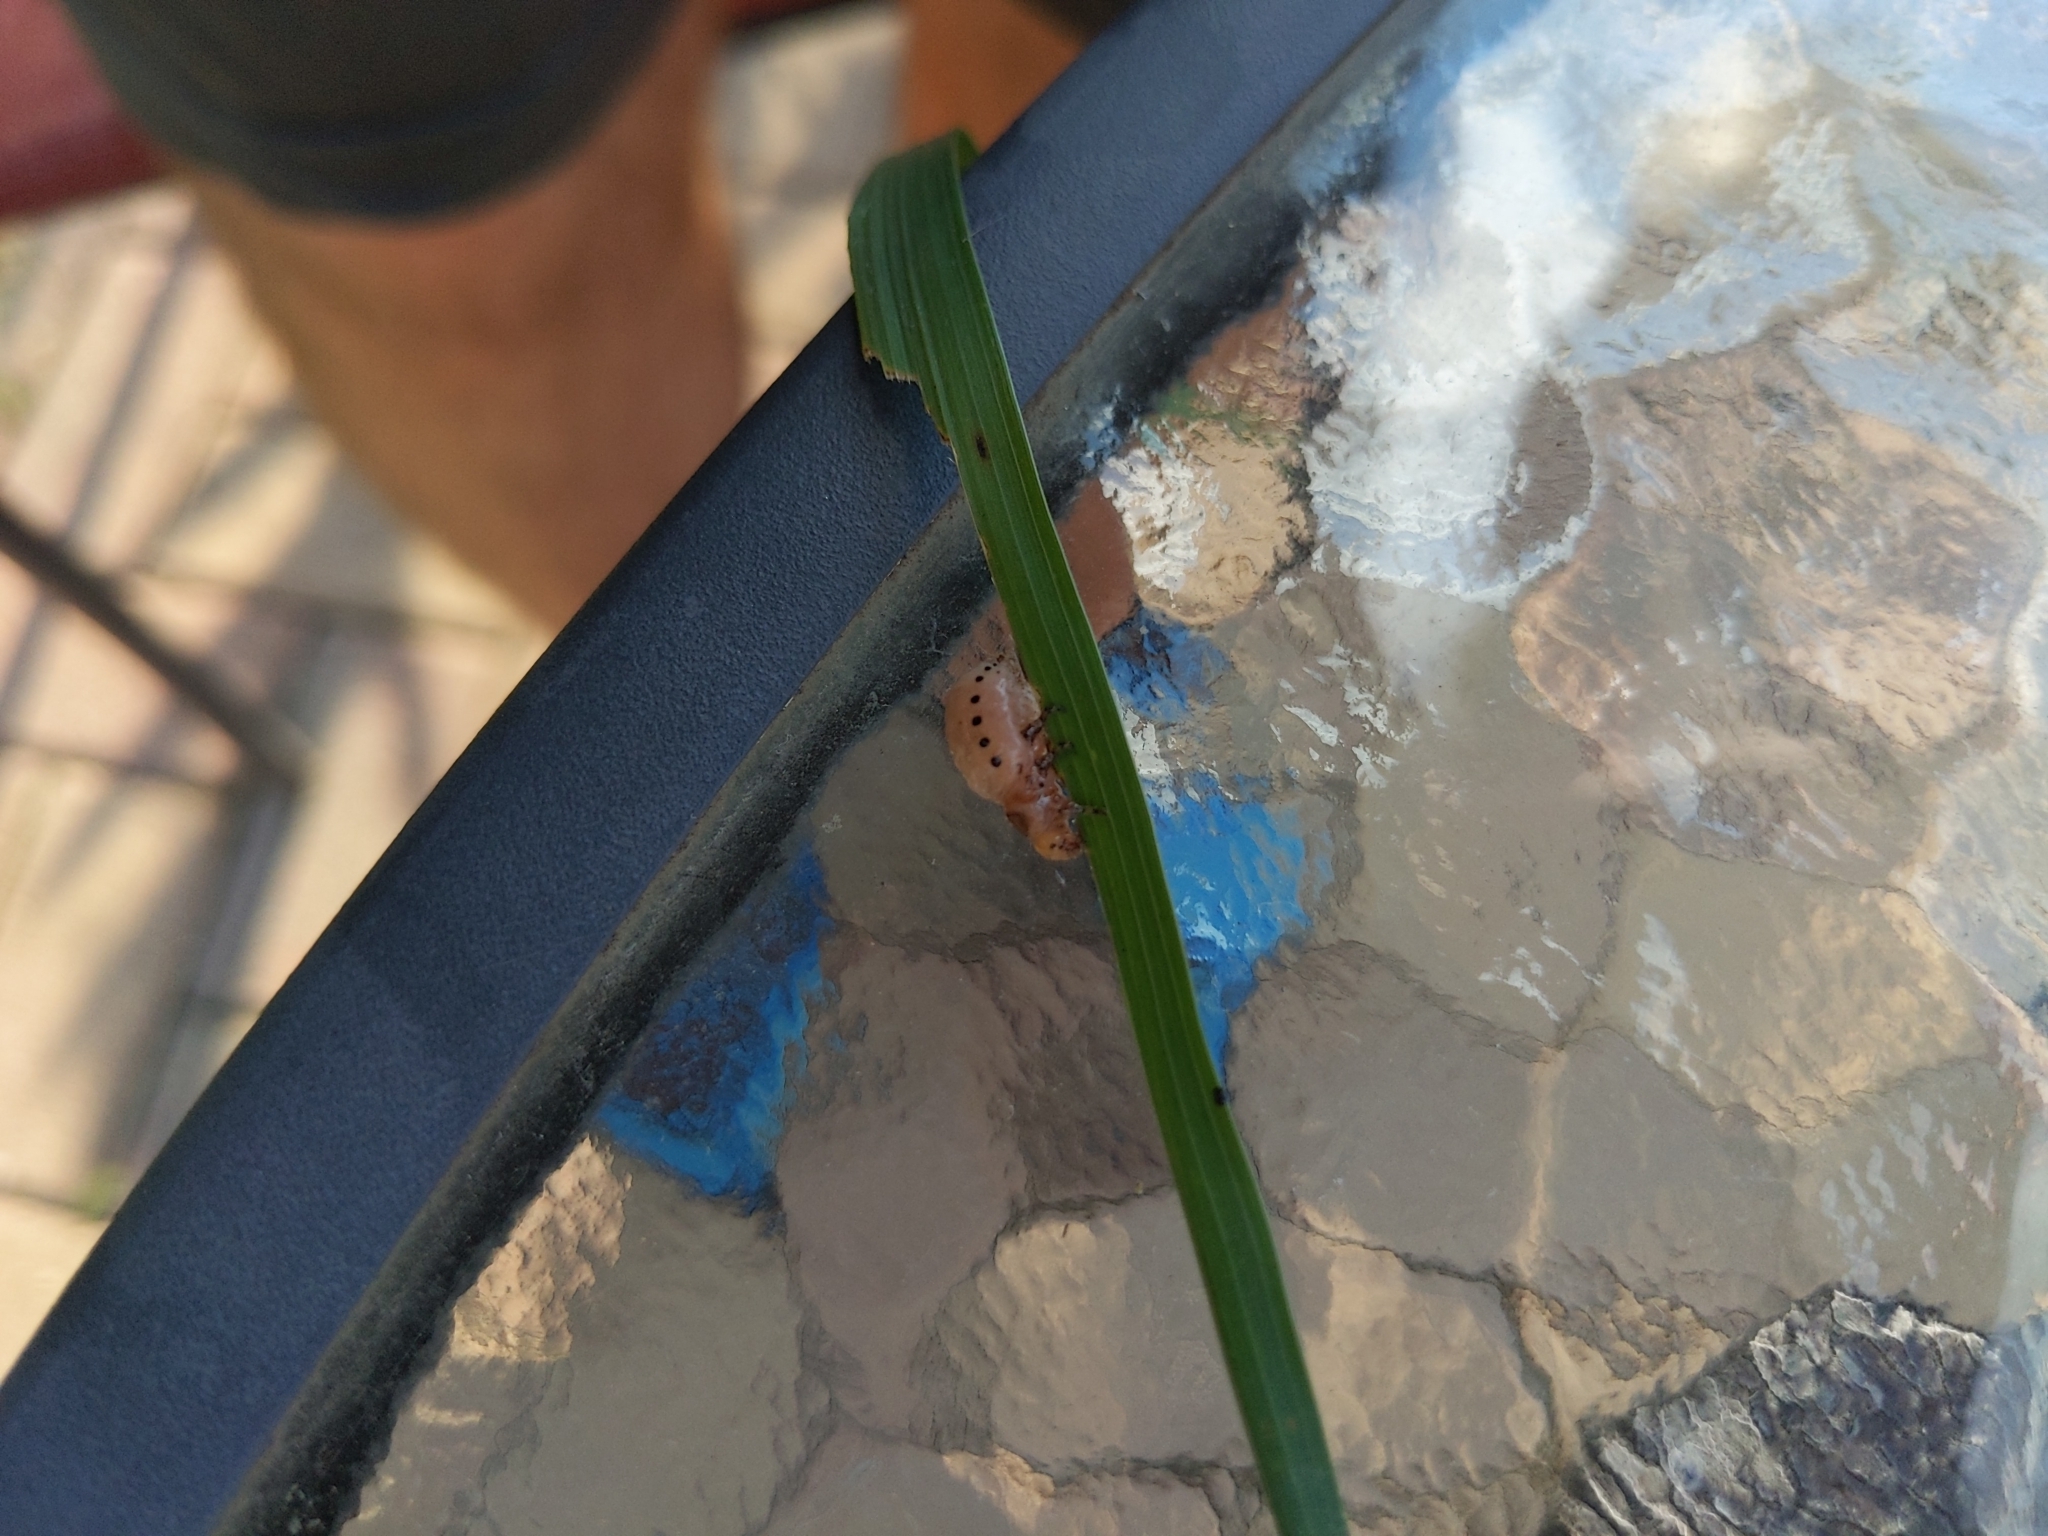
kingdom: Animalia
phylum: Arthropoda
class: Insecta
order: Coleoptera
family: Chrysomelidae
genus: Labidomera
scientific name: Labidomera clivicollis
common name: Swamp milkweed leaf beetle
